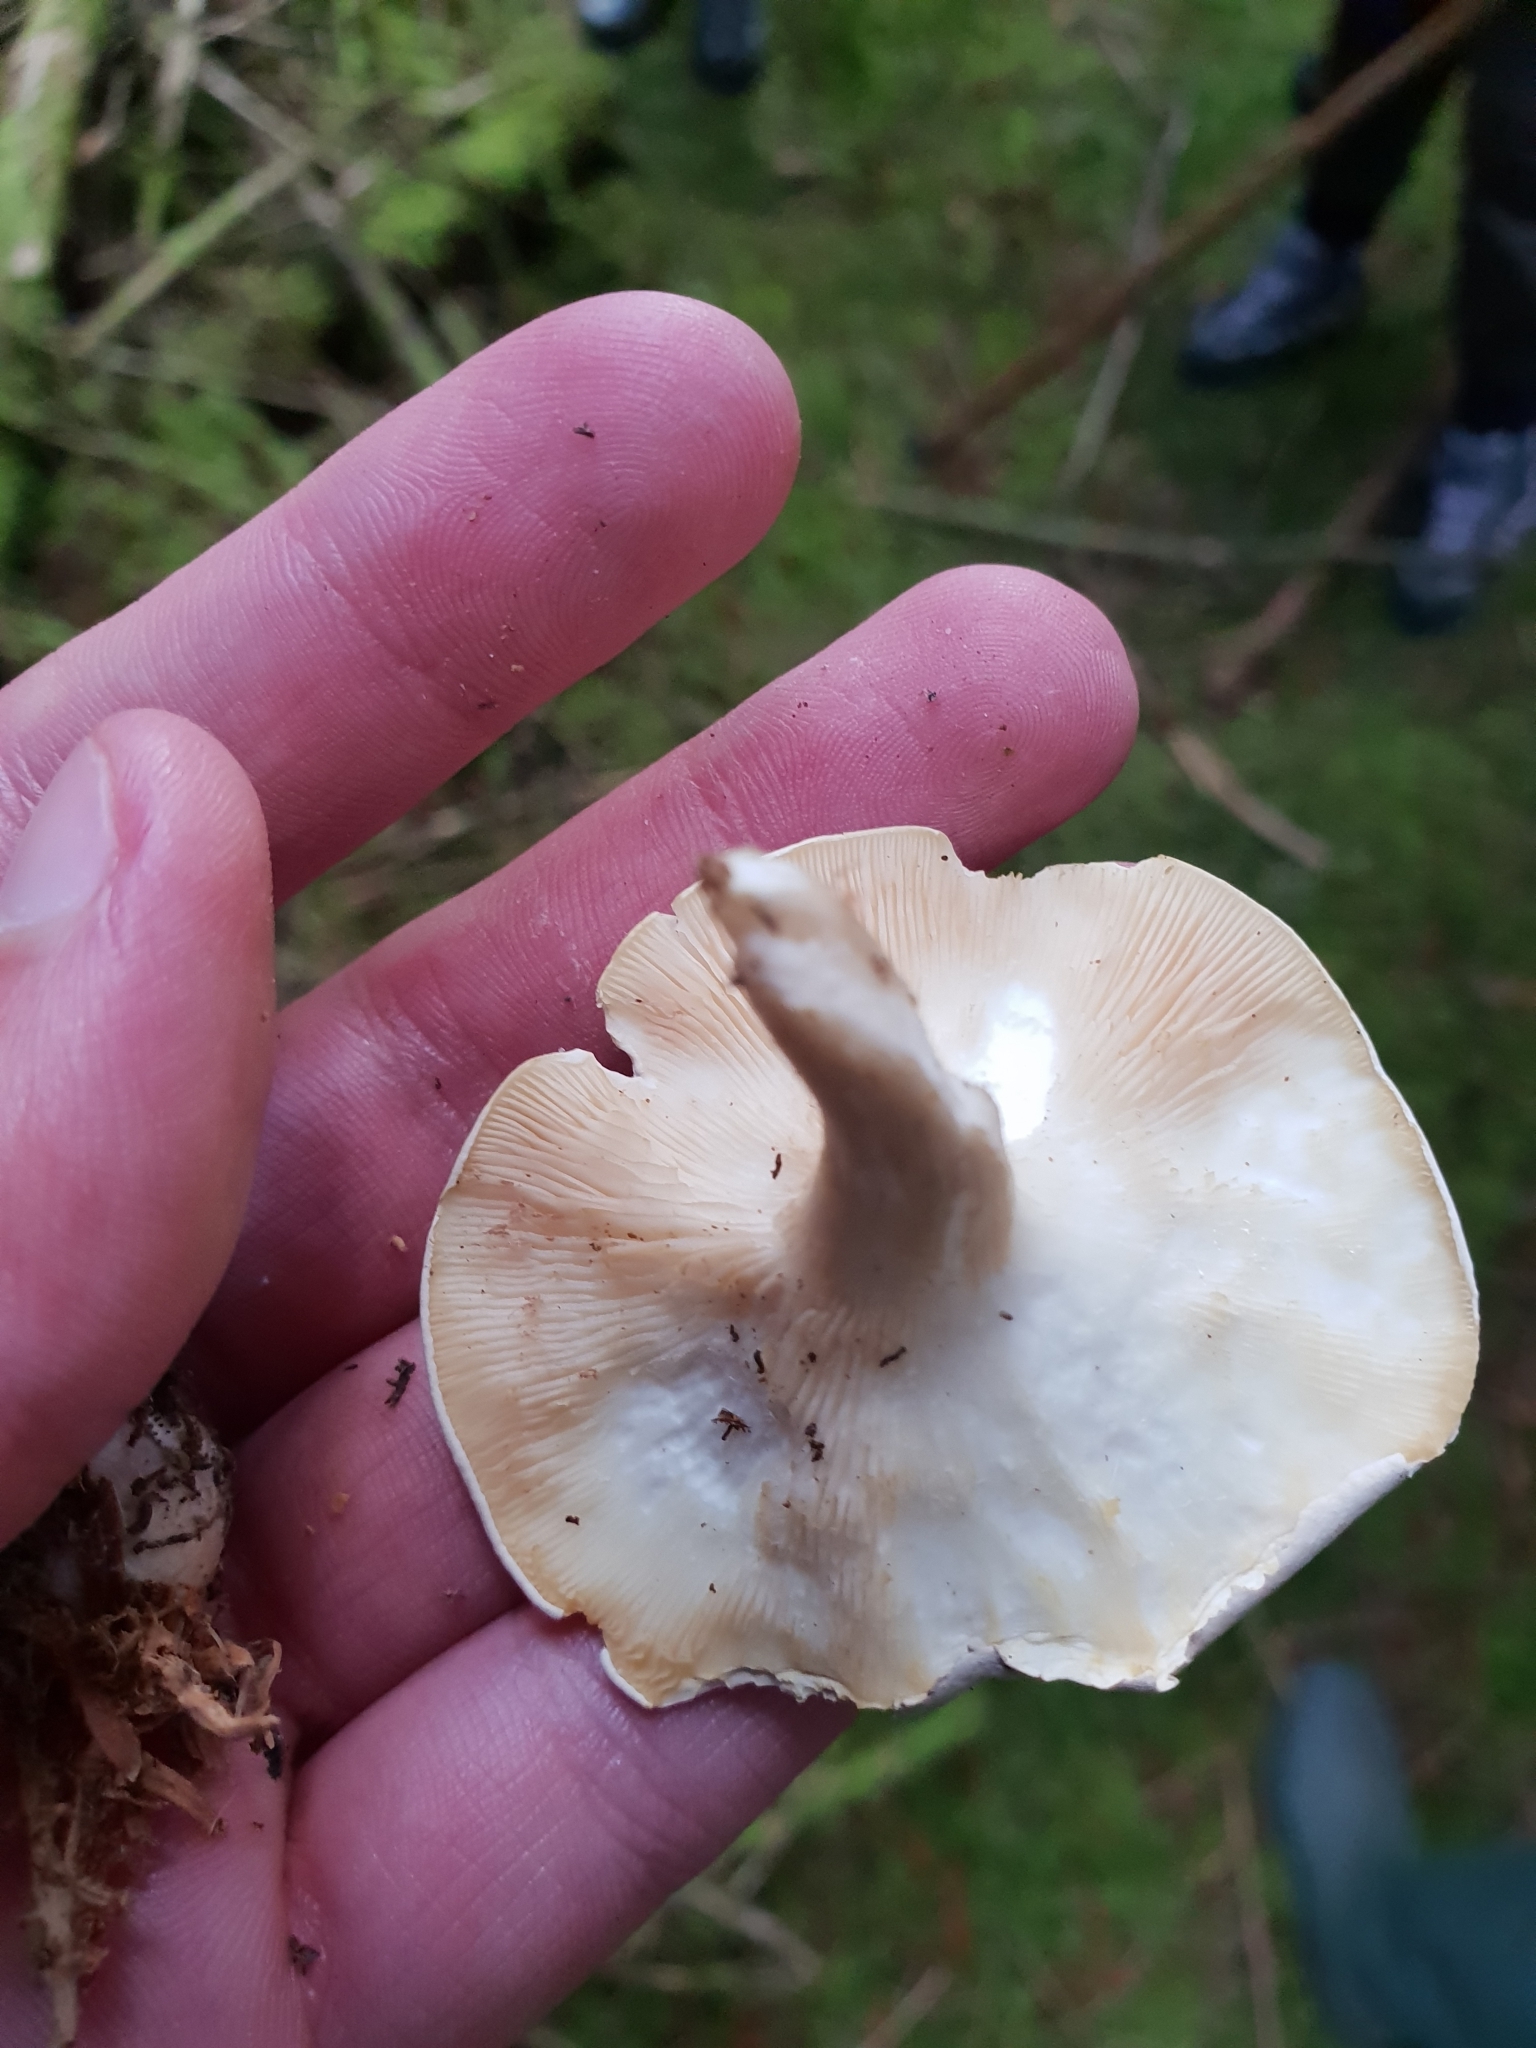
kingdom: Fungi
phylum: Basidiomycota
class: Agaricomycetes
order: Agaricales
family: Entolomataceae
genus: Clitopilus
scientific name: Clitopilus prunulus
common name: The miller
